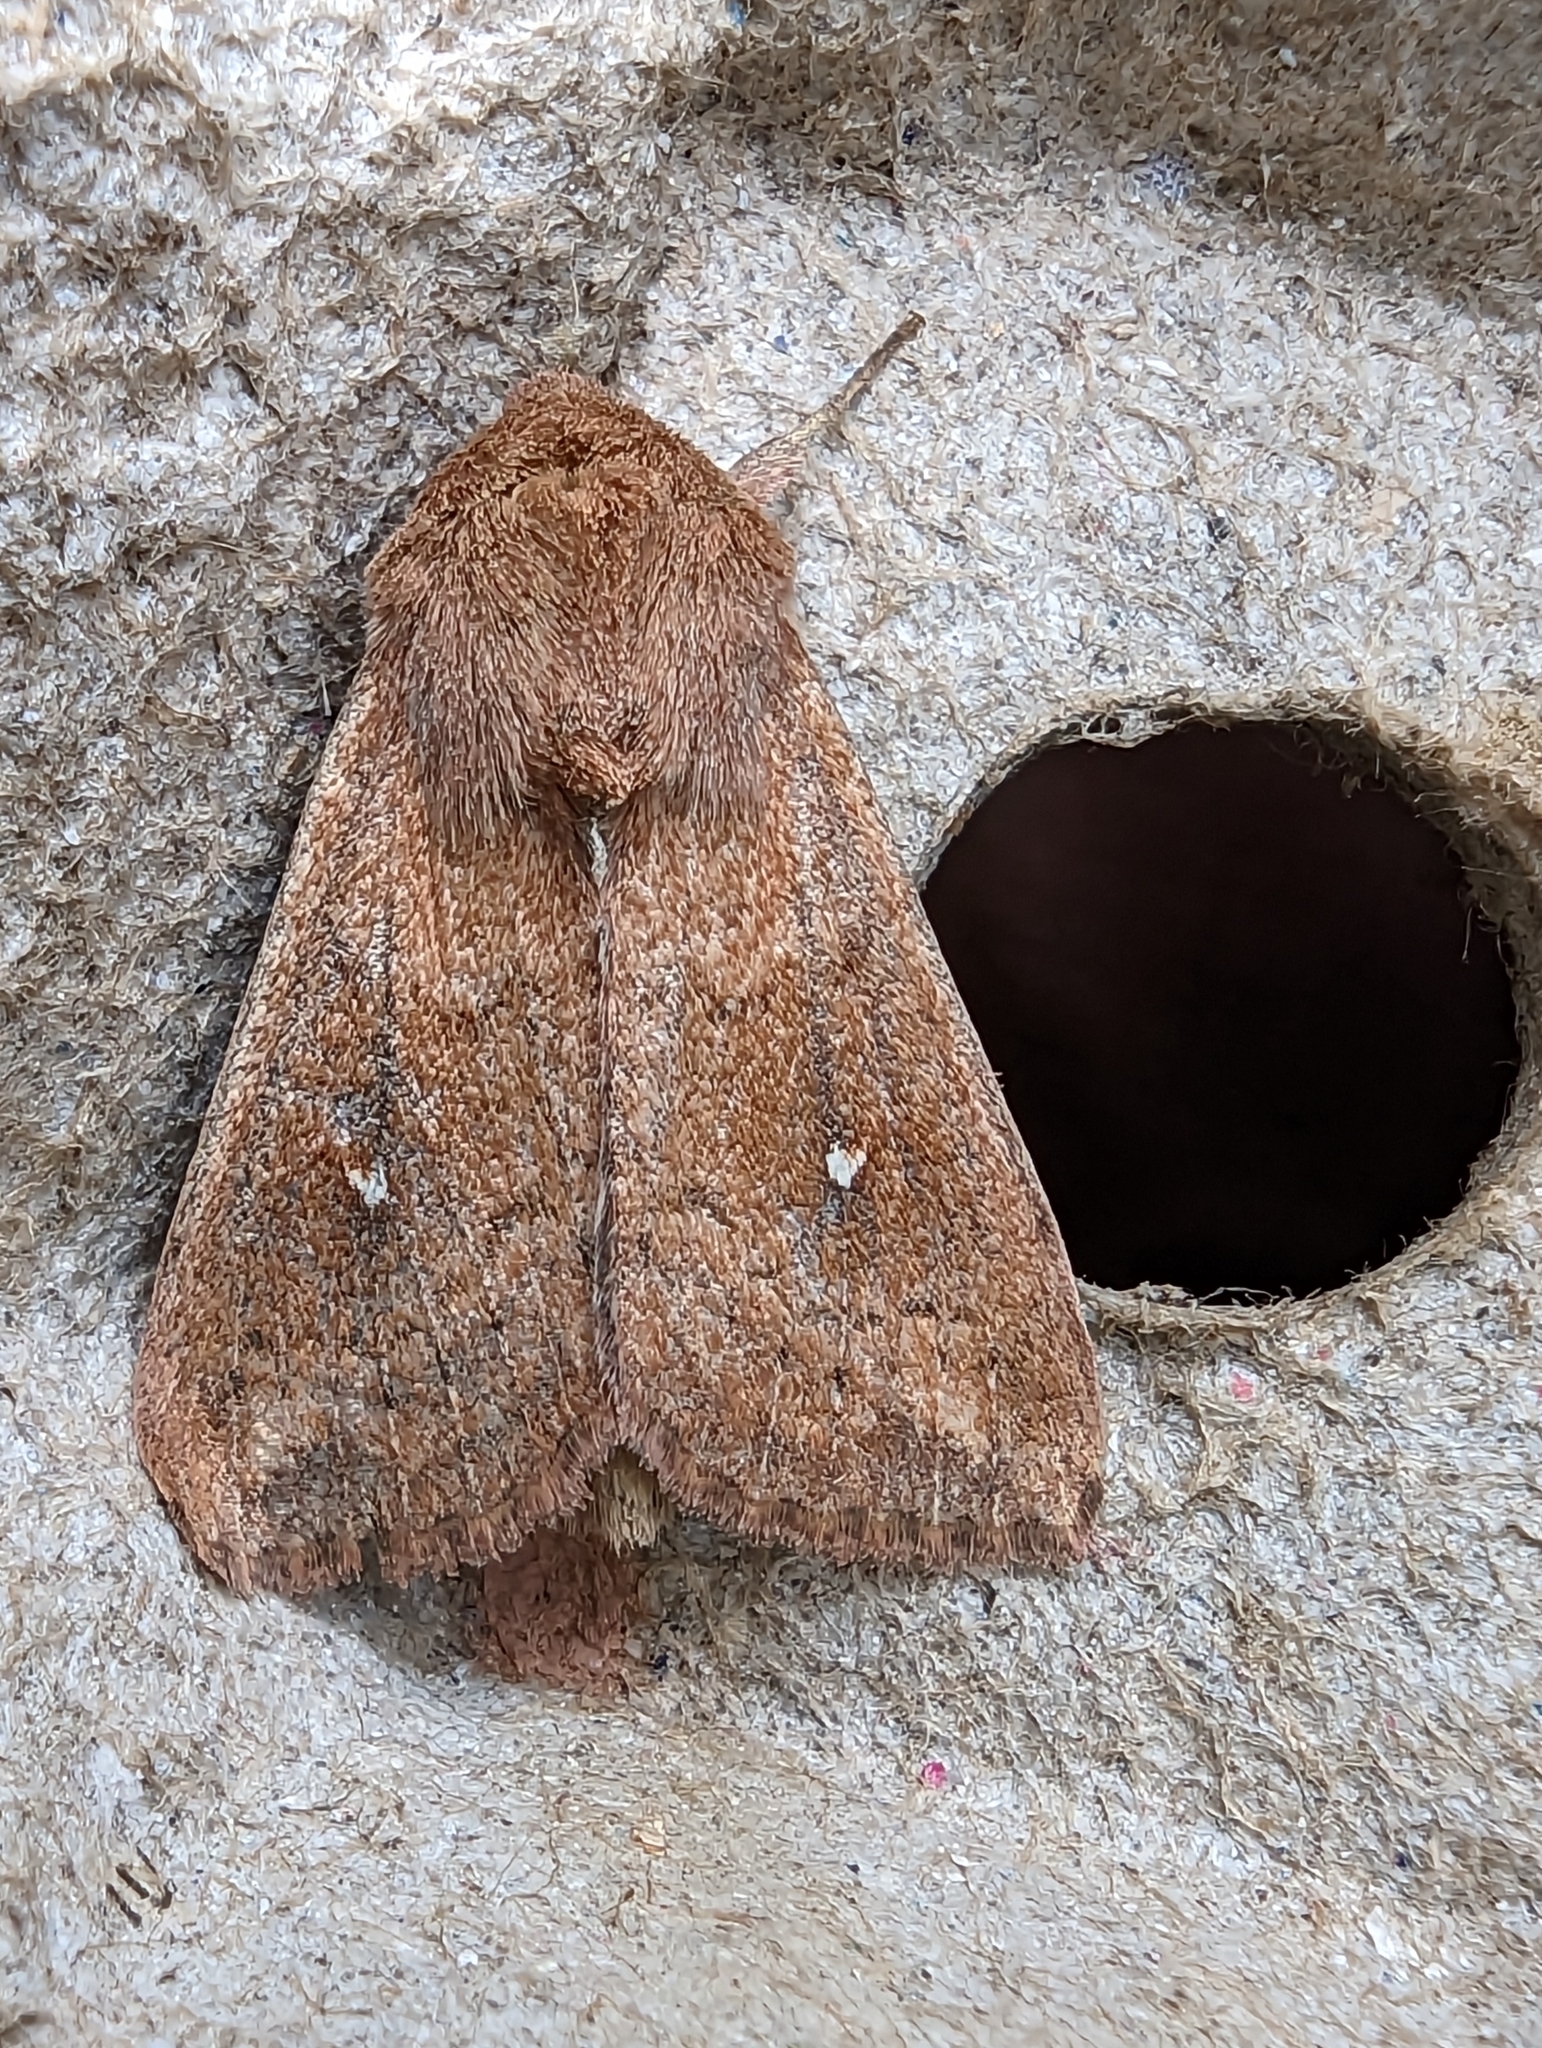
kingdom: Animalia
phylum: Arthropoda
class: Insecta
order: Lepidoptera
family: Noctuidae
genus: Mythimna
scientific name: Mythimna albipuncta
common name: White-point
